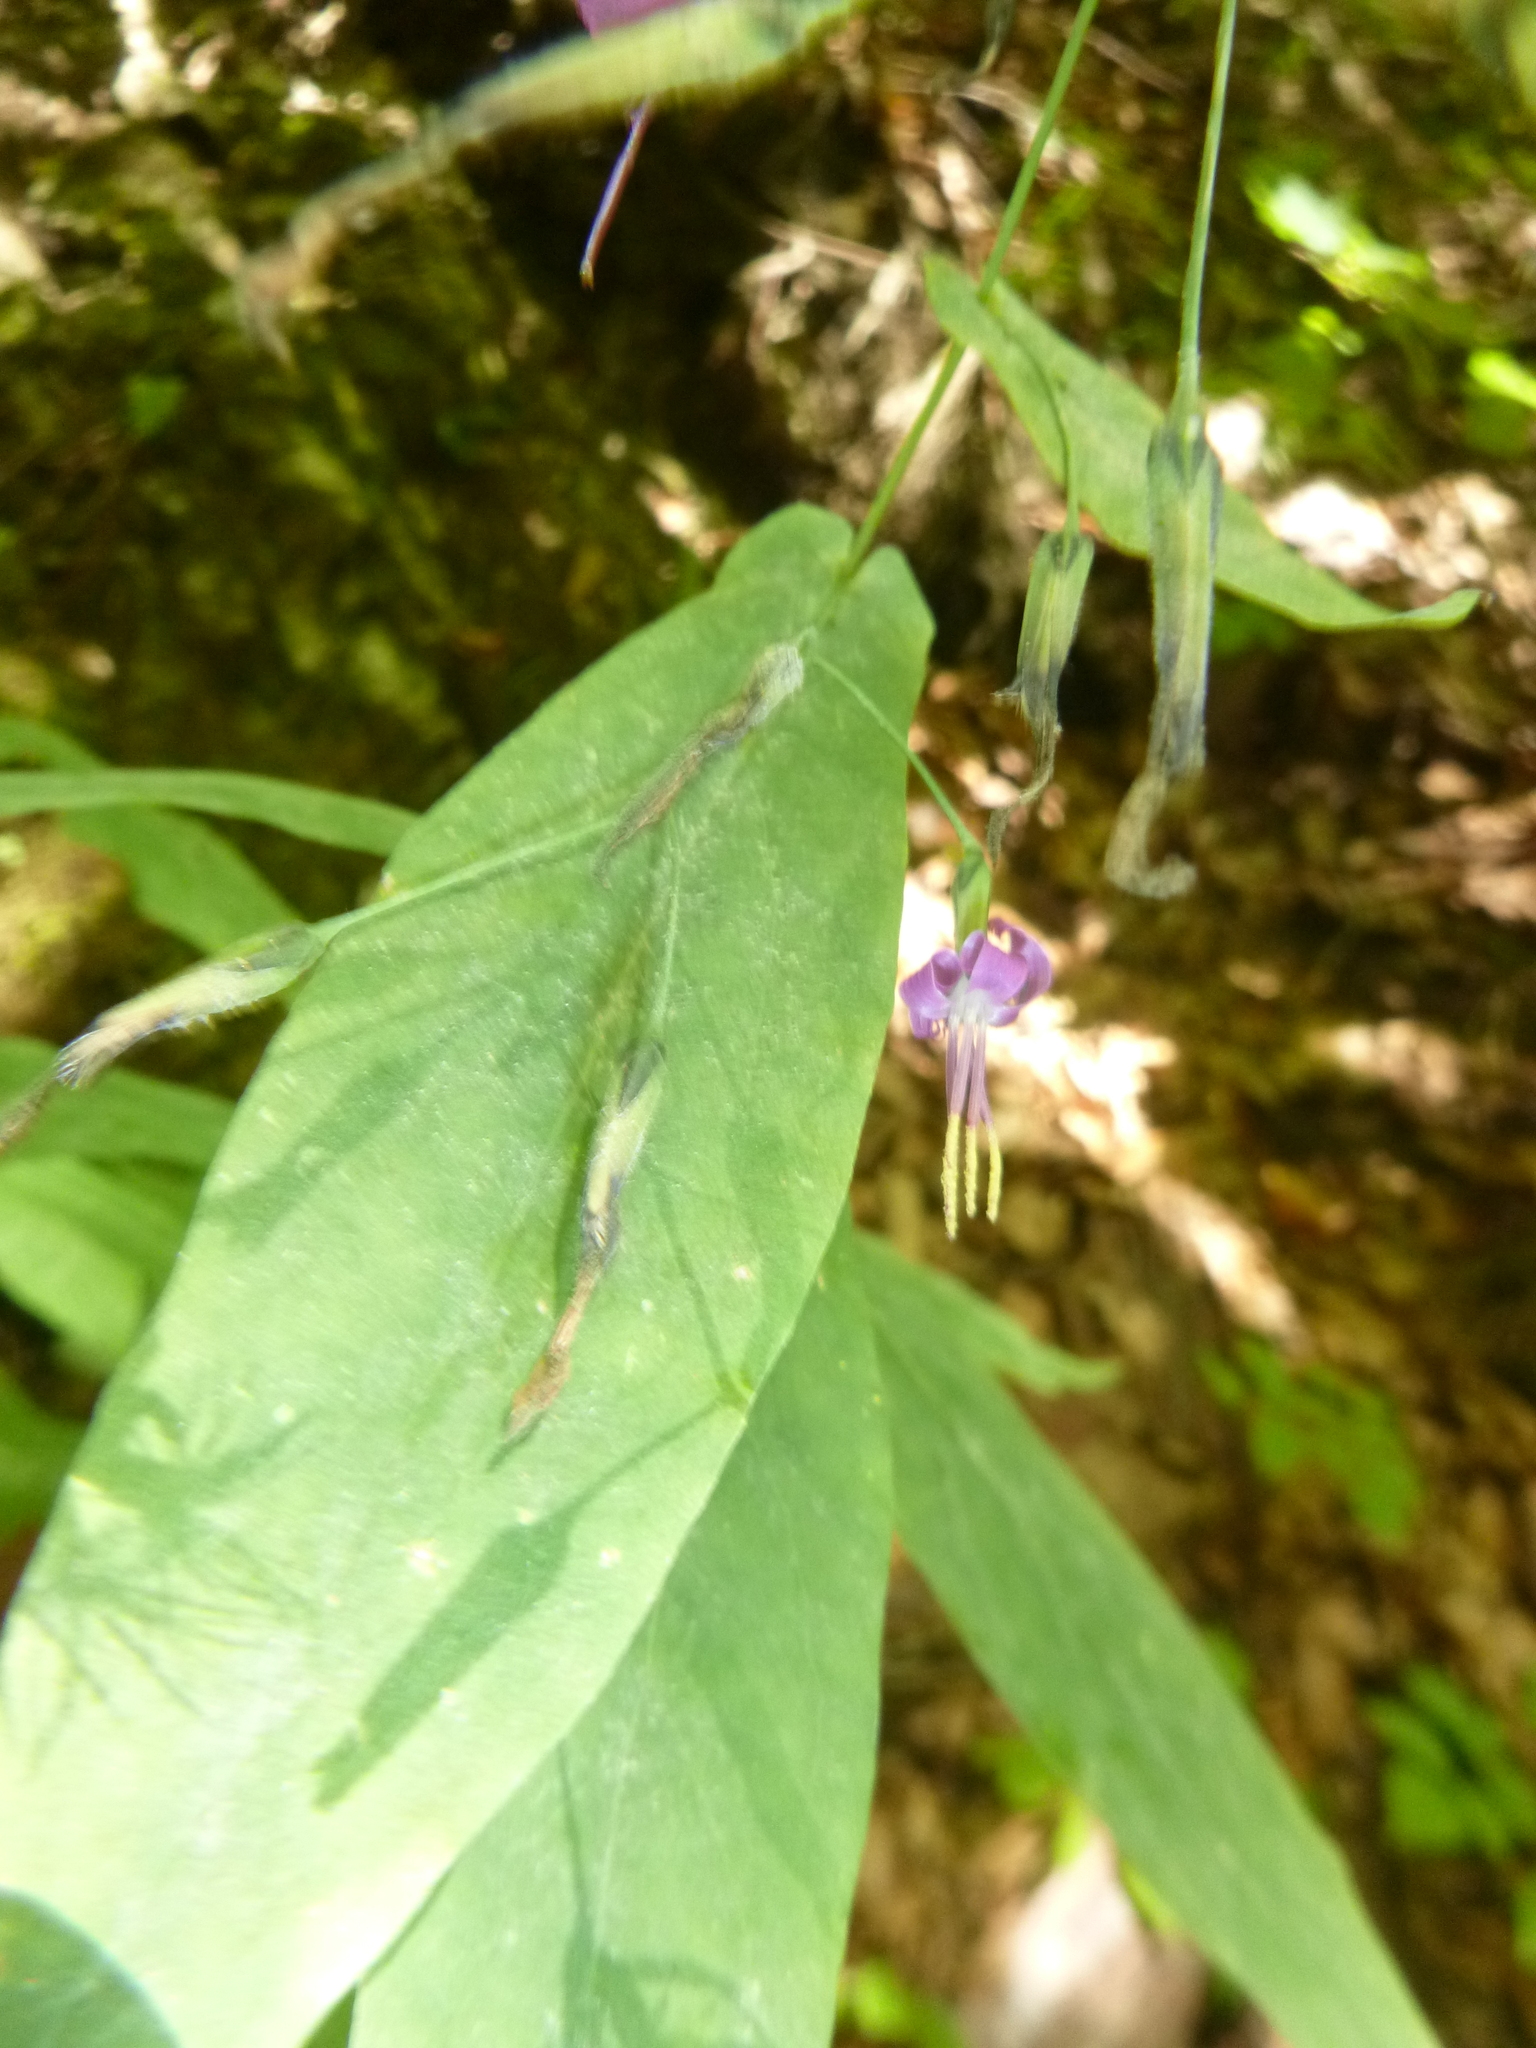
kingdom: Plantae
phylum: Tracheophyta
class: Magnoliopsida
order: Asterales
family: Asteraceae
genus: Prenanthes
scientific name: Prenanthes purpurea
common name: Purple lettuce
